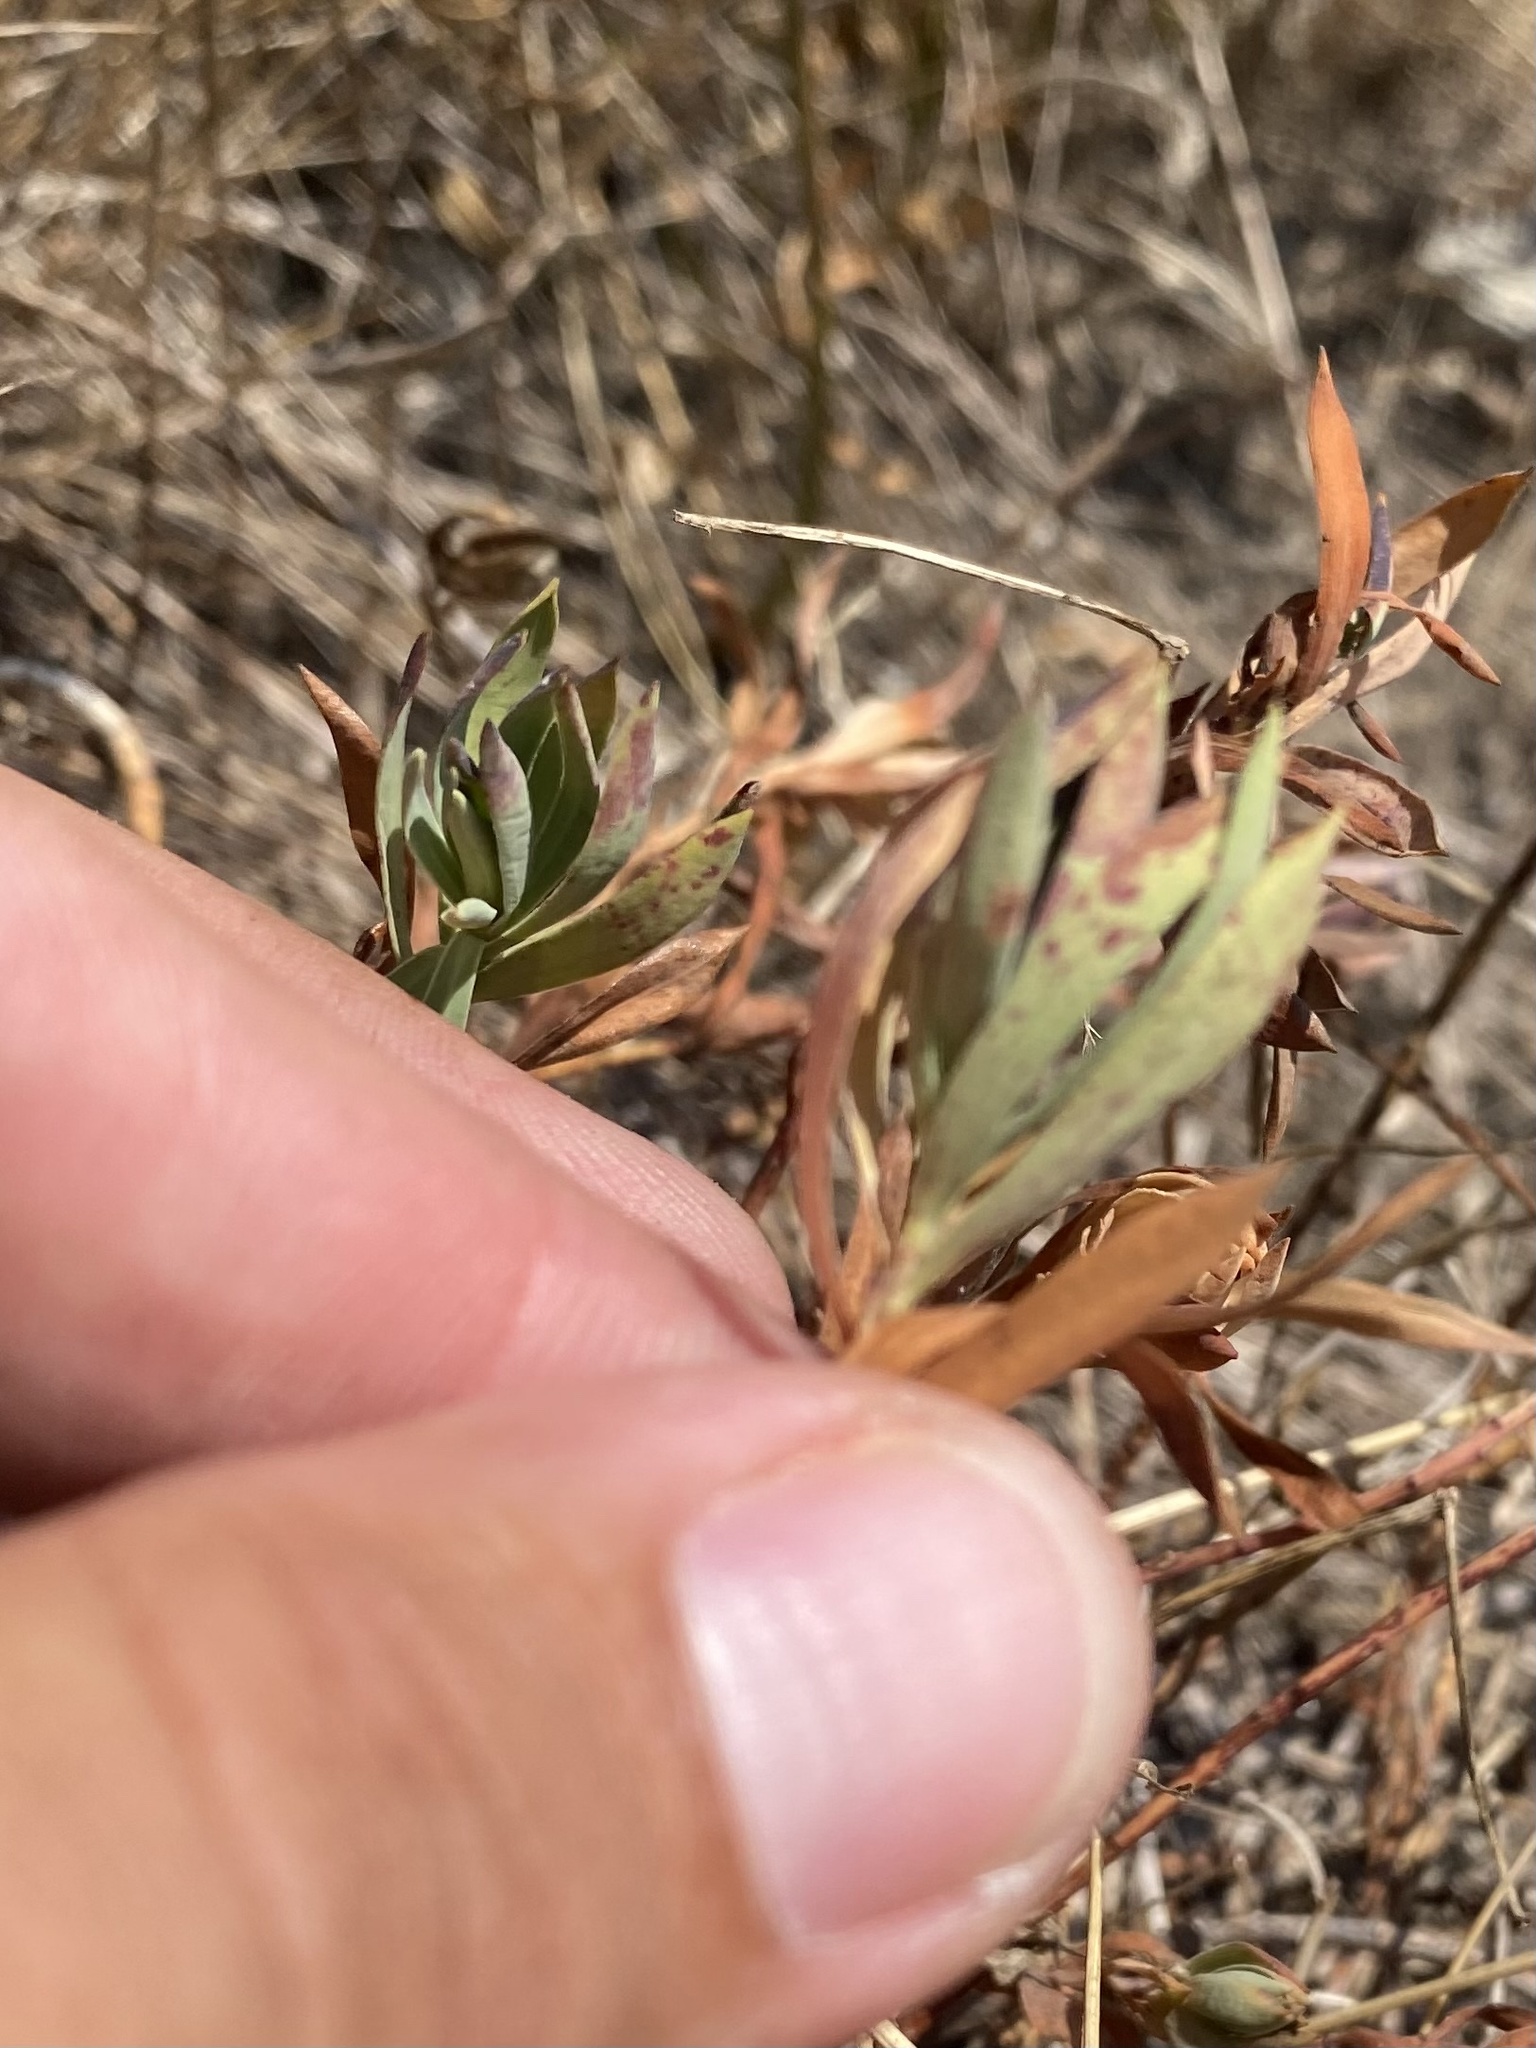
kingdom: Plantae
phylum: Tracheophyta
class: Magnoliopsida
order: Malpighiales
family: Euphorbiaceae
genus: Euphorbia
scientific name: Euphorbia seguieriana
